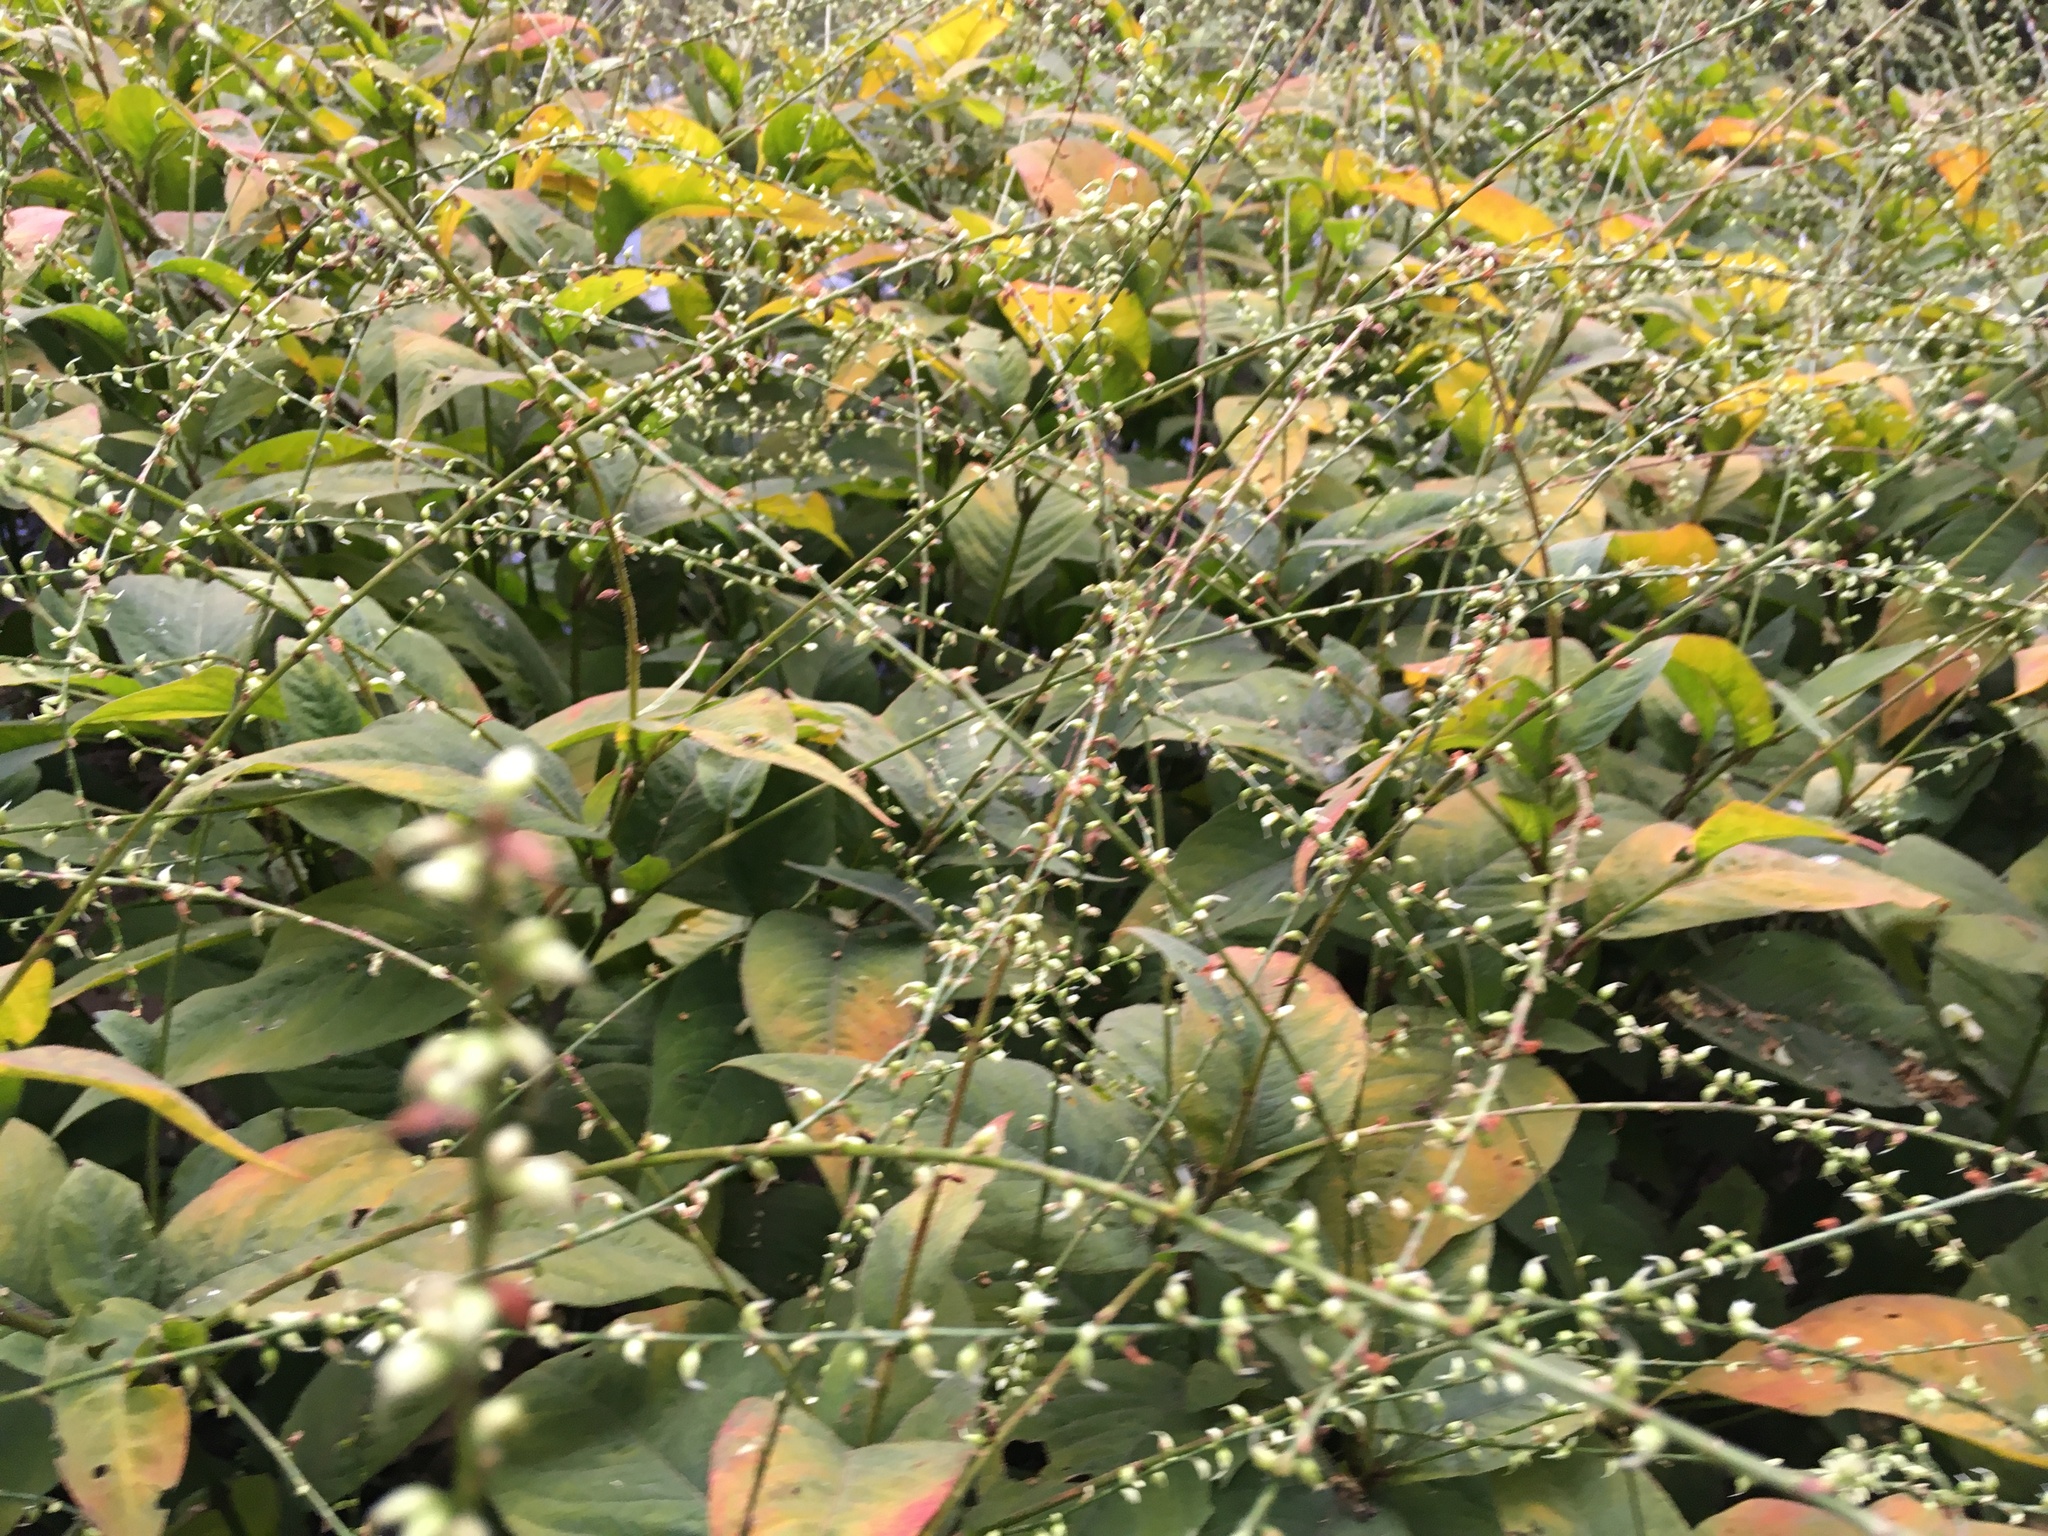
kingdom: Plantae
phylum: Tracheophyta
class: Magnoliopsida
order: Caryophyllales
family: Polygonaceae
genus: Persicaria
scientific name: Persicaria virginiana
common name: Jumpseed
